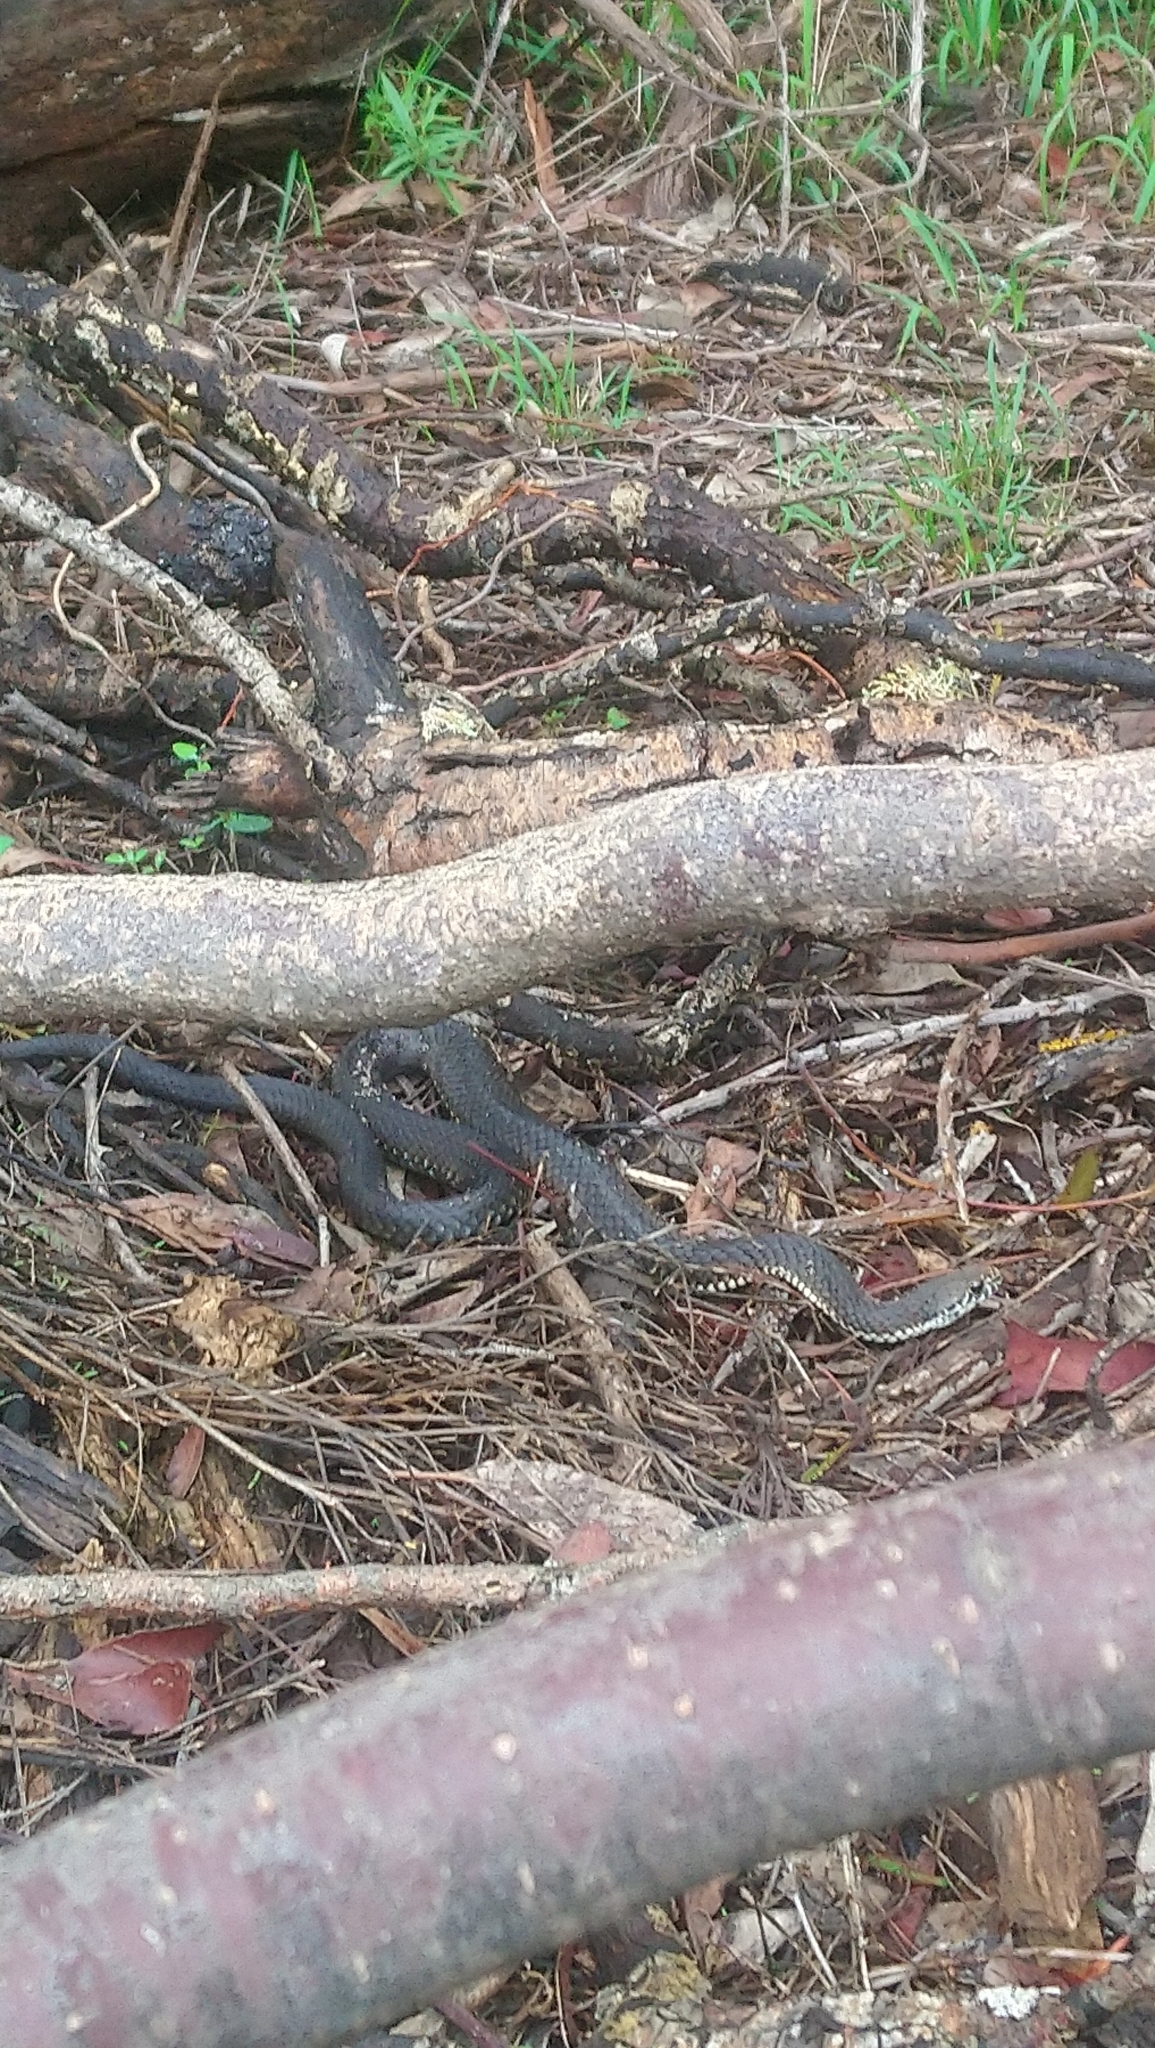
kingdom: Animalia
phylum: Chordata
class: Squamata
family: Elapidae
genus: Austrelaps
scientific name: Austrelaps ramsayi
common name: Highlands copperhead
